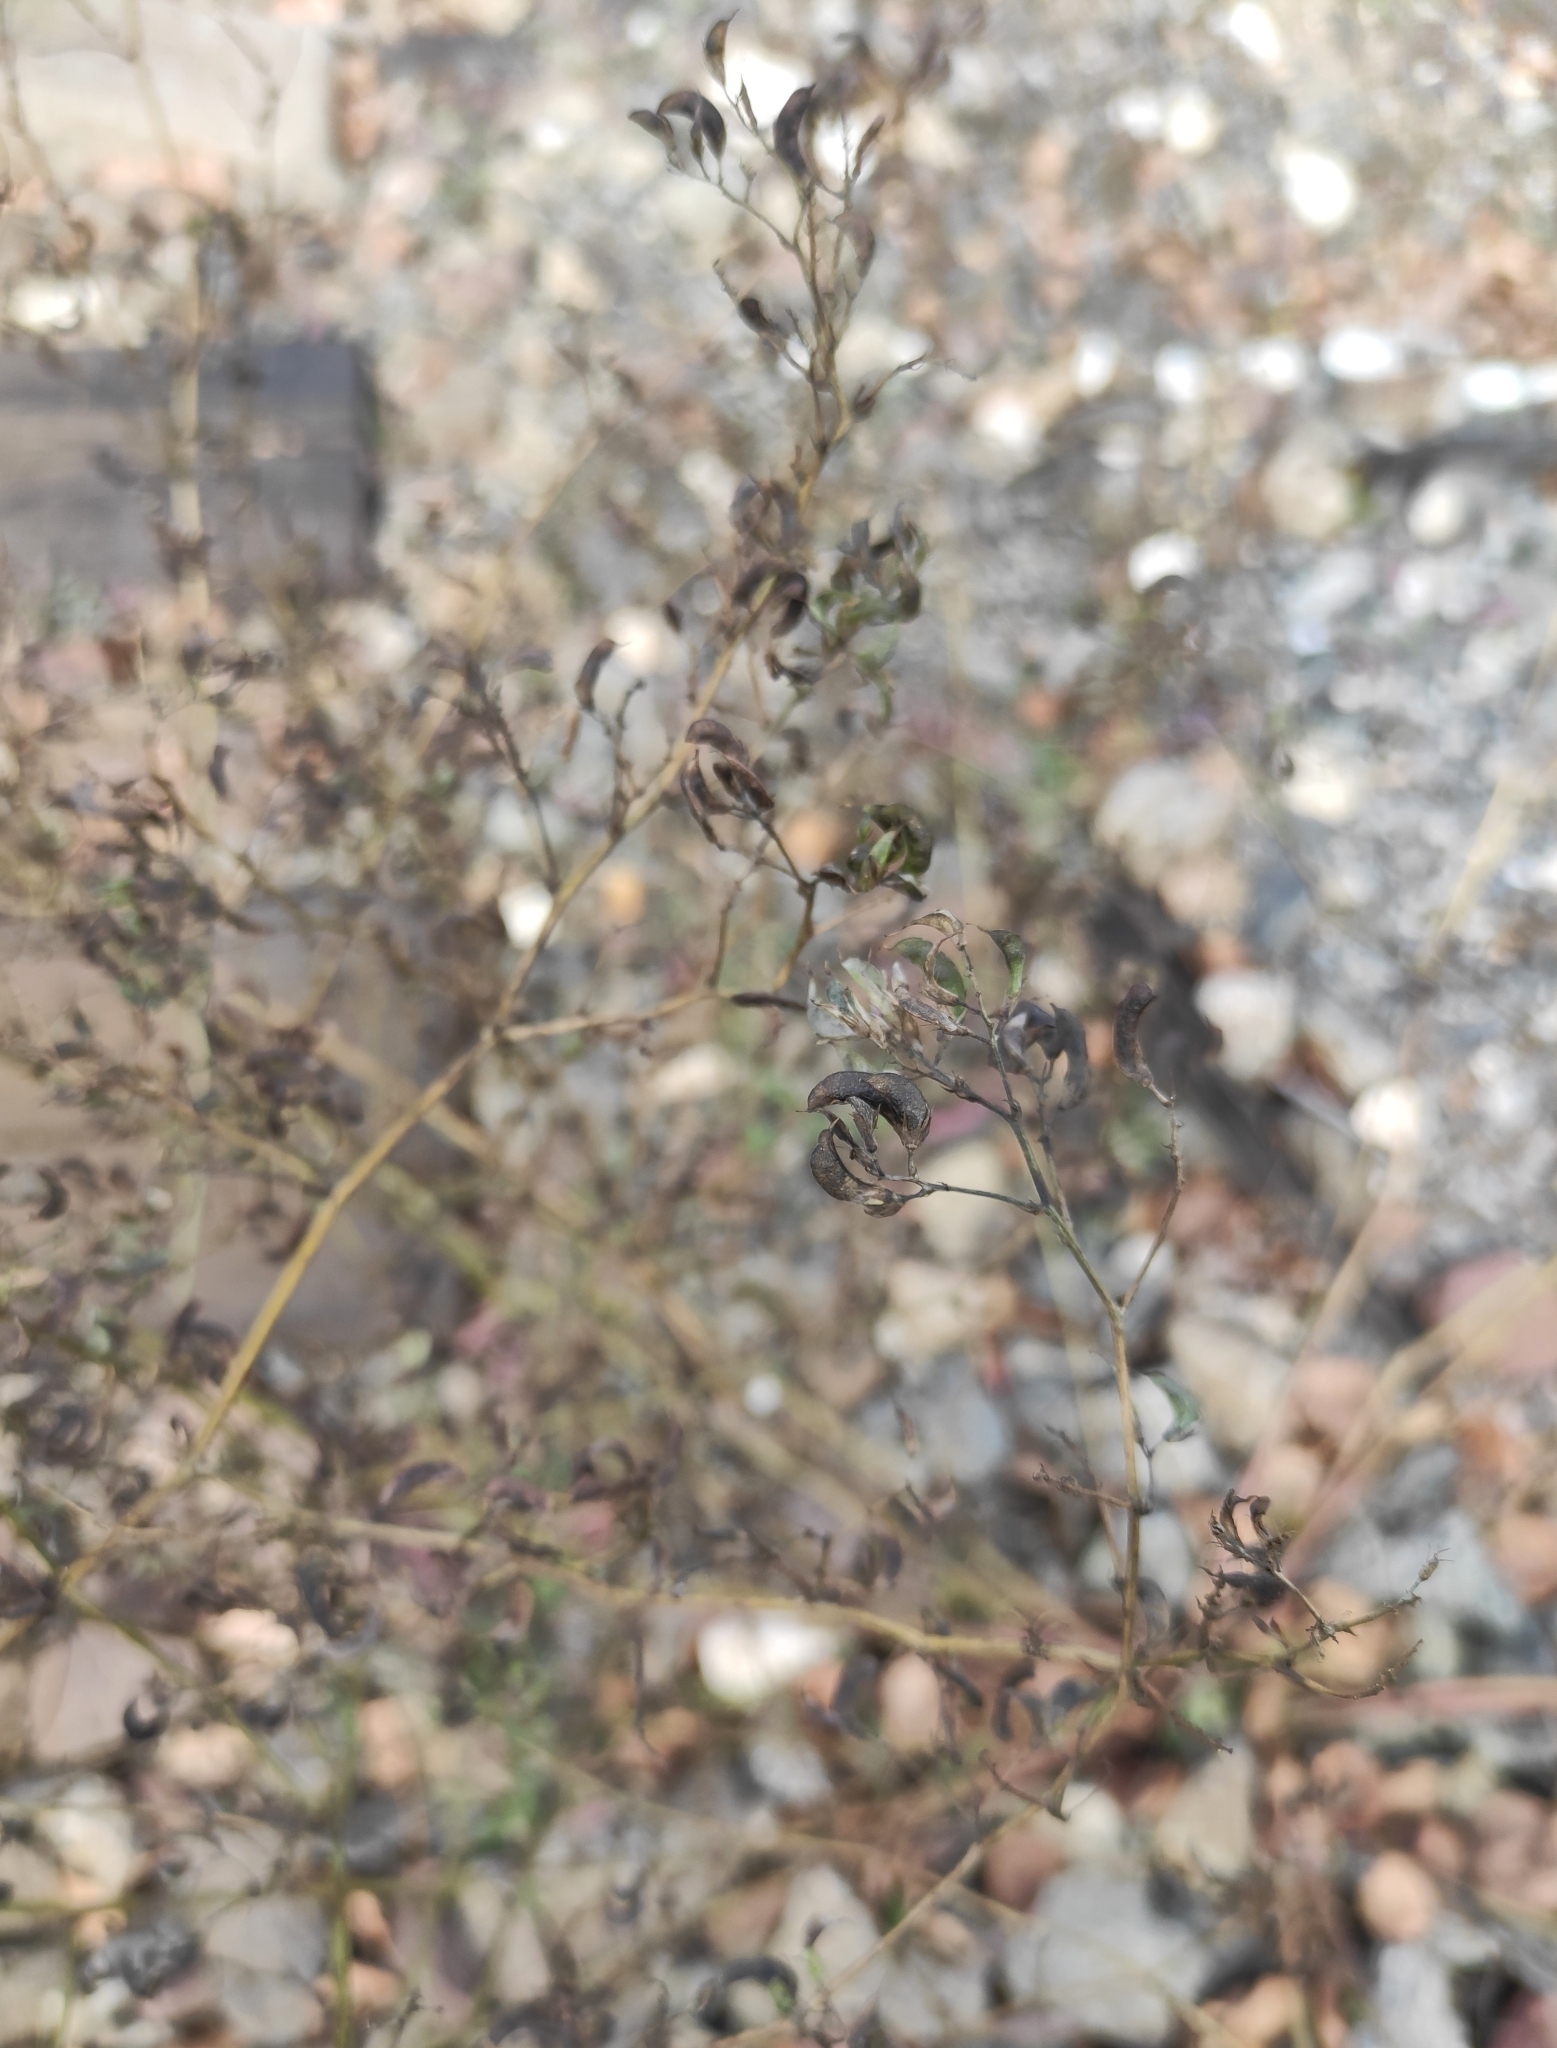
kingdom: Plantae
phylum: Tracheophyta
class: Magnoliopsida
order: Fabales
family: Fabaceae
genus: Medicago
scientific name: Medicago falcata
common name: Sickle medick
